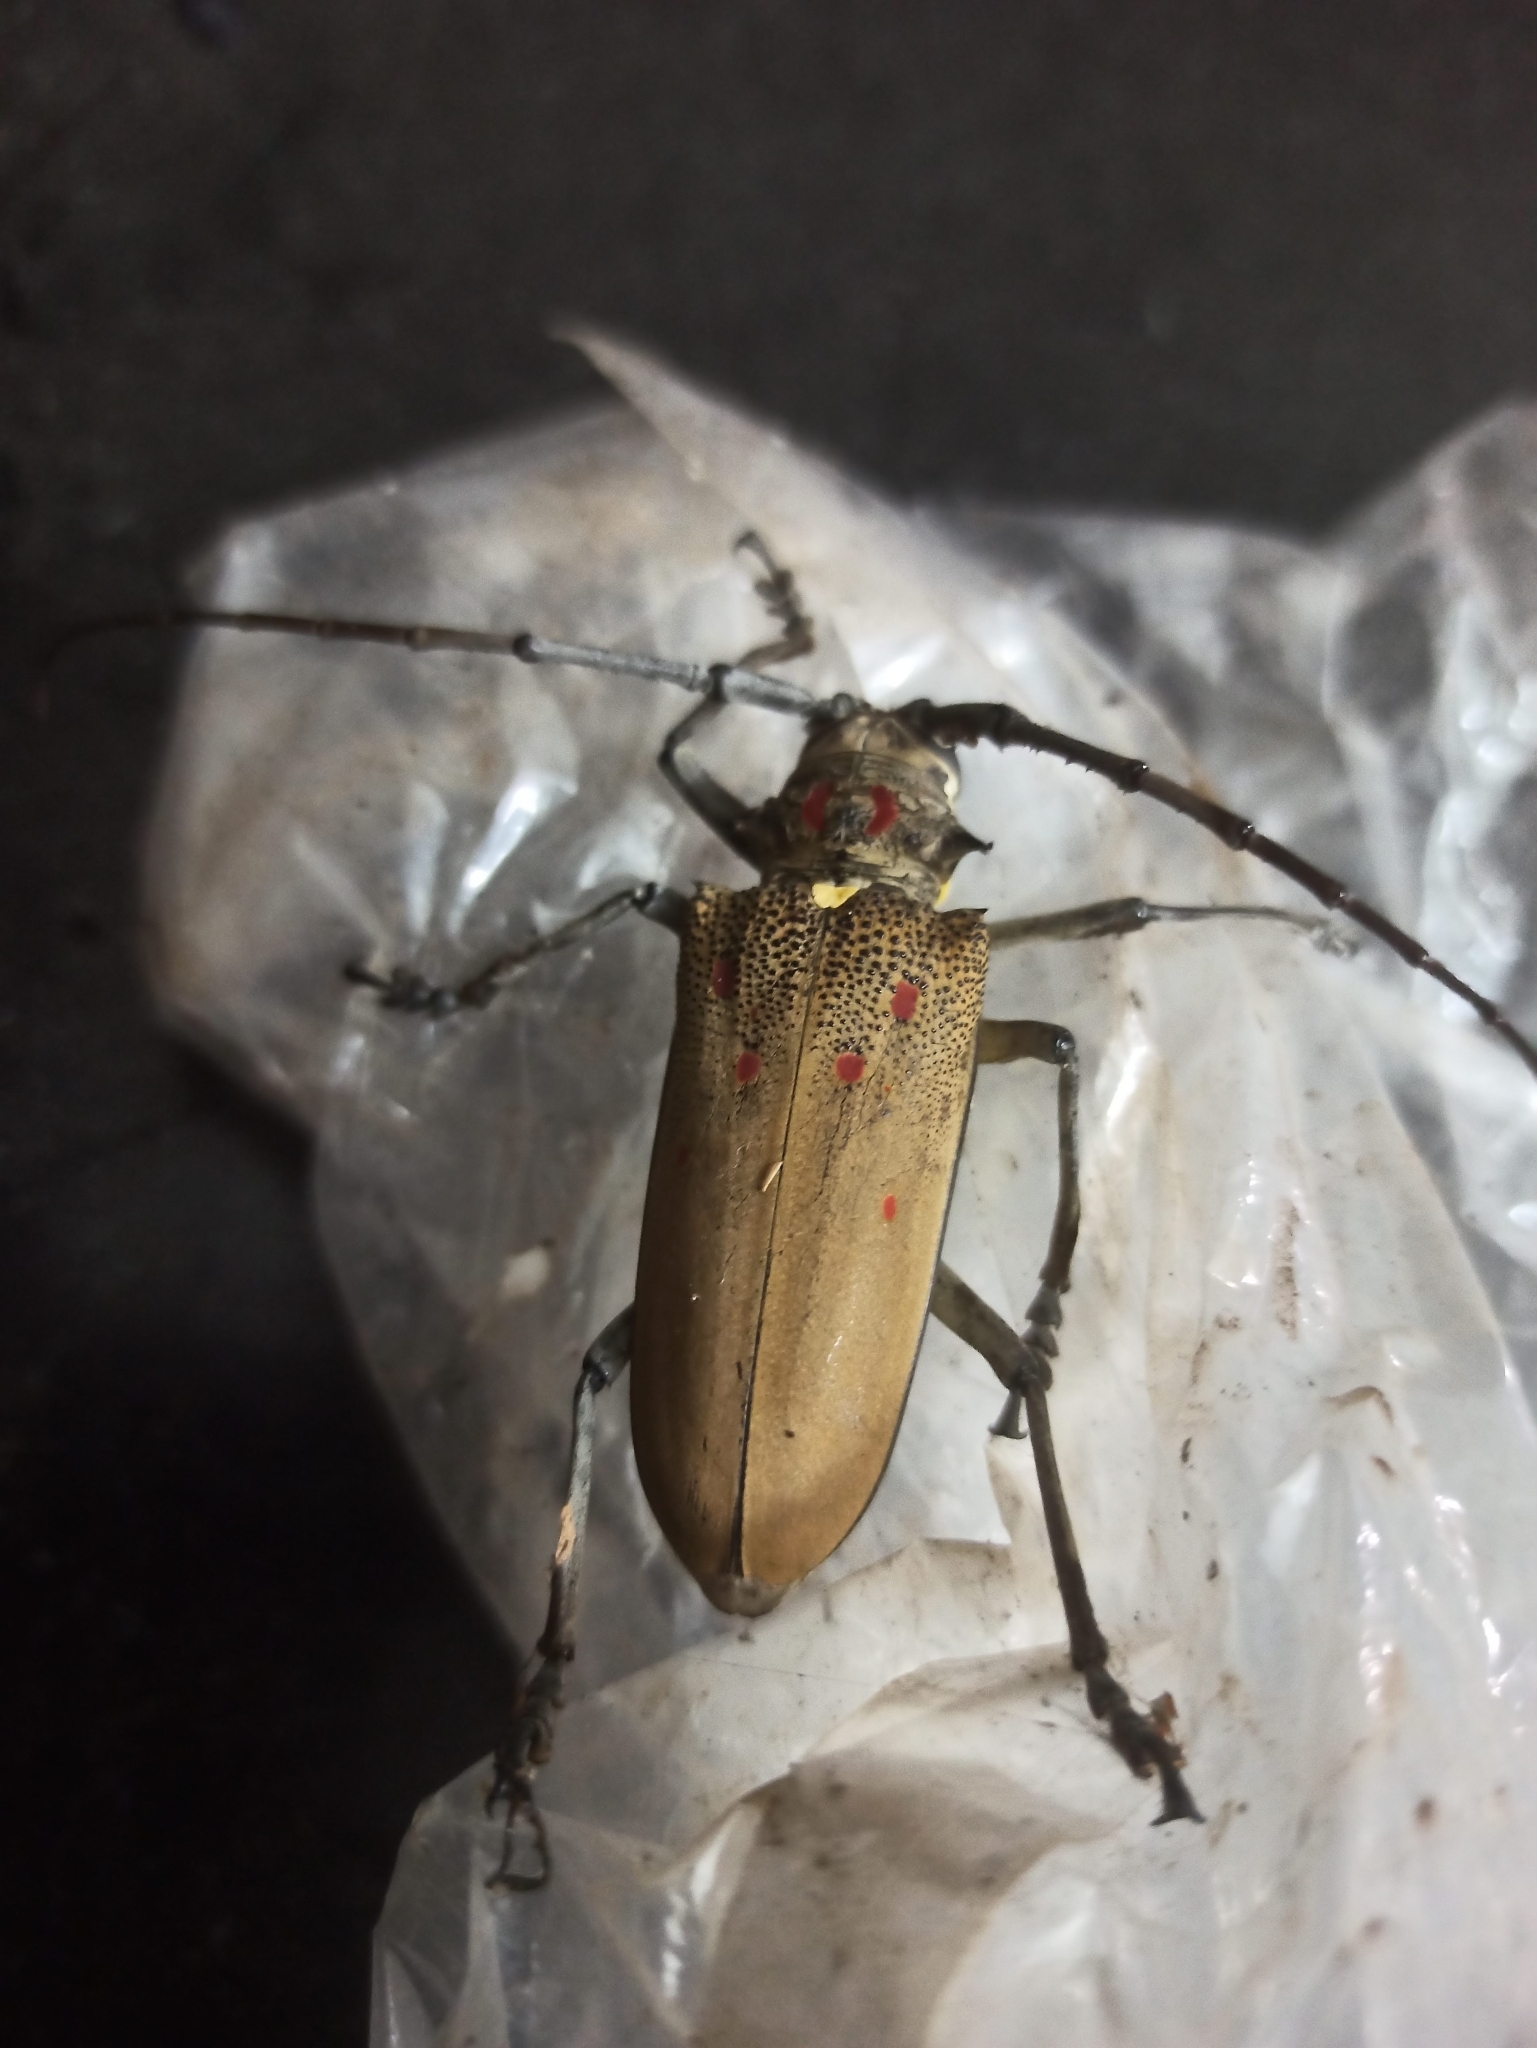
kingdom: Animalia
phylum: Arthropoda
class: Insecta
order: Coleoptera
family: Cerambycidae
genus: Batocera
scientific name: Batocera rufomaculata
